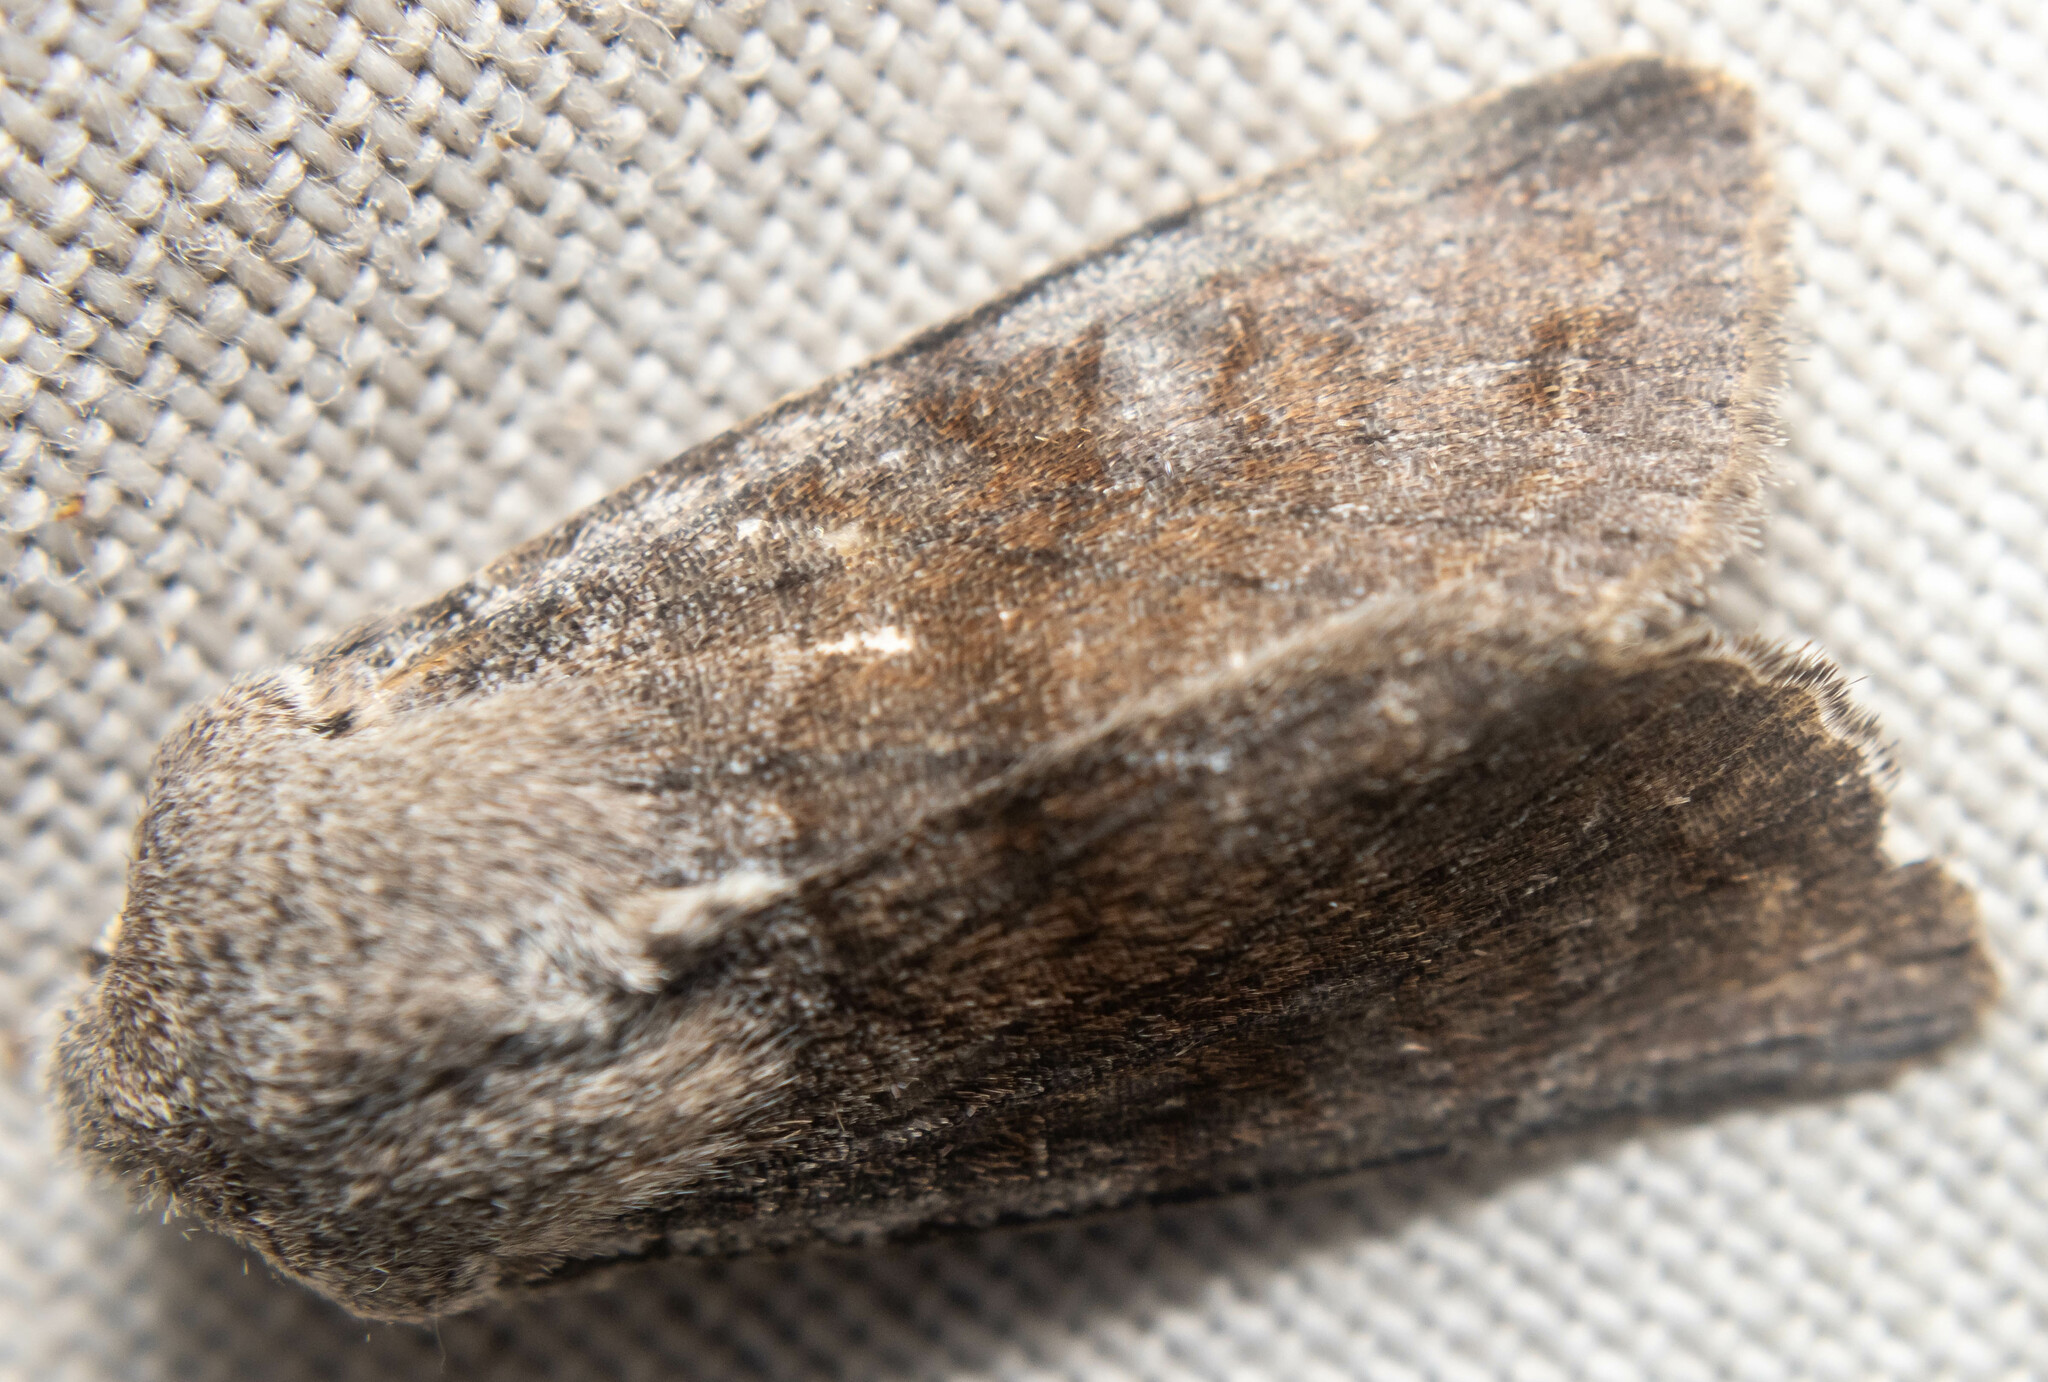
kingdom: Animalia
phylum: Arthropoda
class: Insecta
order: Lepidoptera
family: Noctuidae
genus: Orthosia
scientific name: Orthosia incerta
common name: Clouded drab
